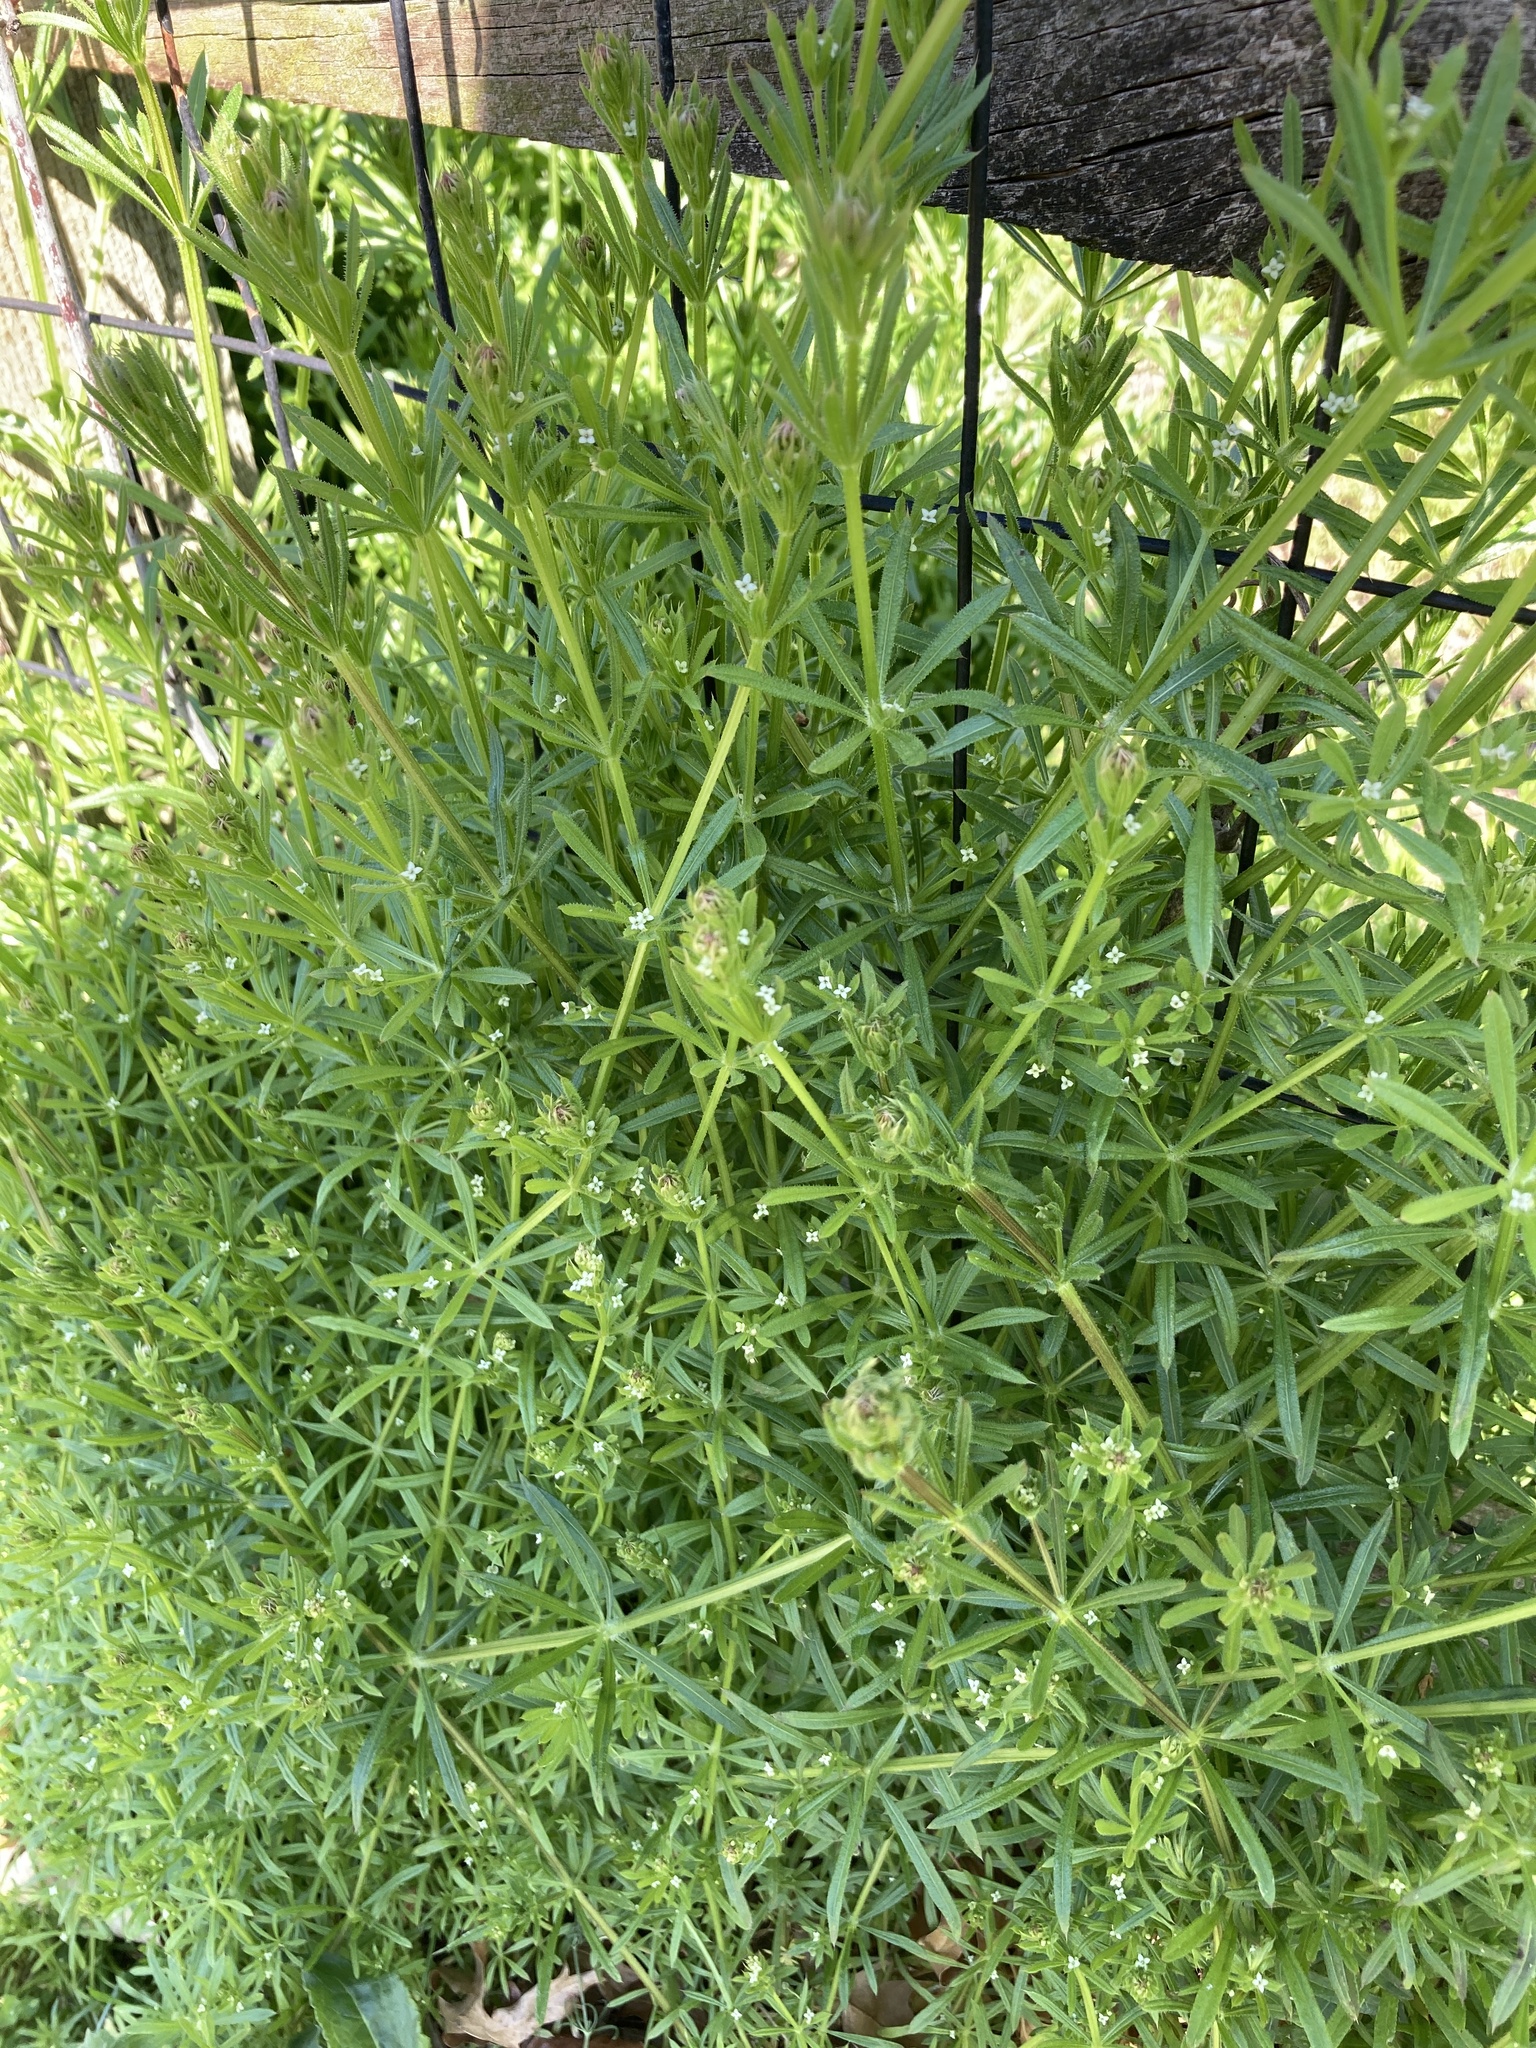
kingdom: Plantae
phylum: Tracheophyta
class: Magnoliopsida
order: Gentianales
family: Rubiaceae
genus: Galium
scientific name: Galium aparine
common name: Cleavers
